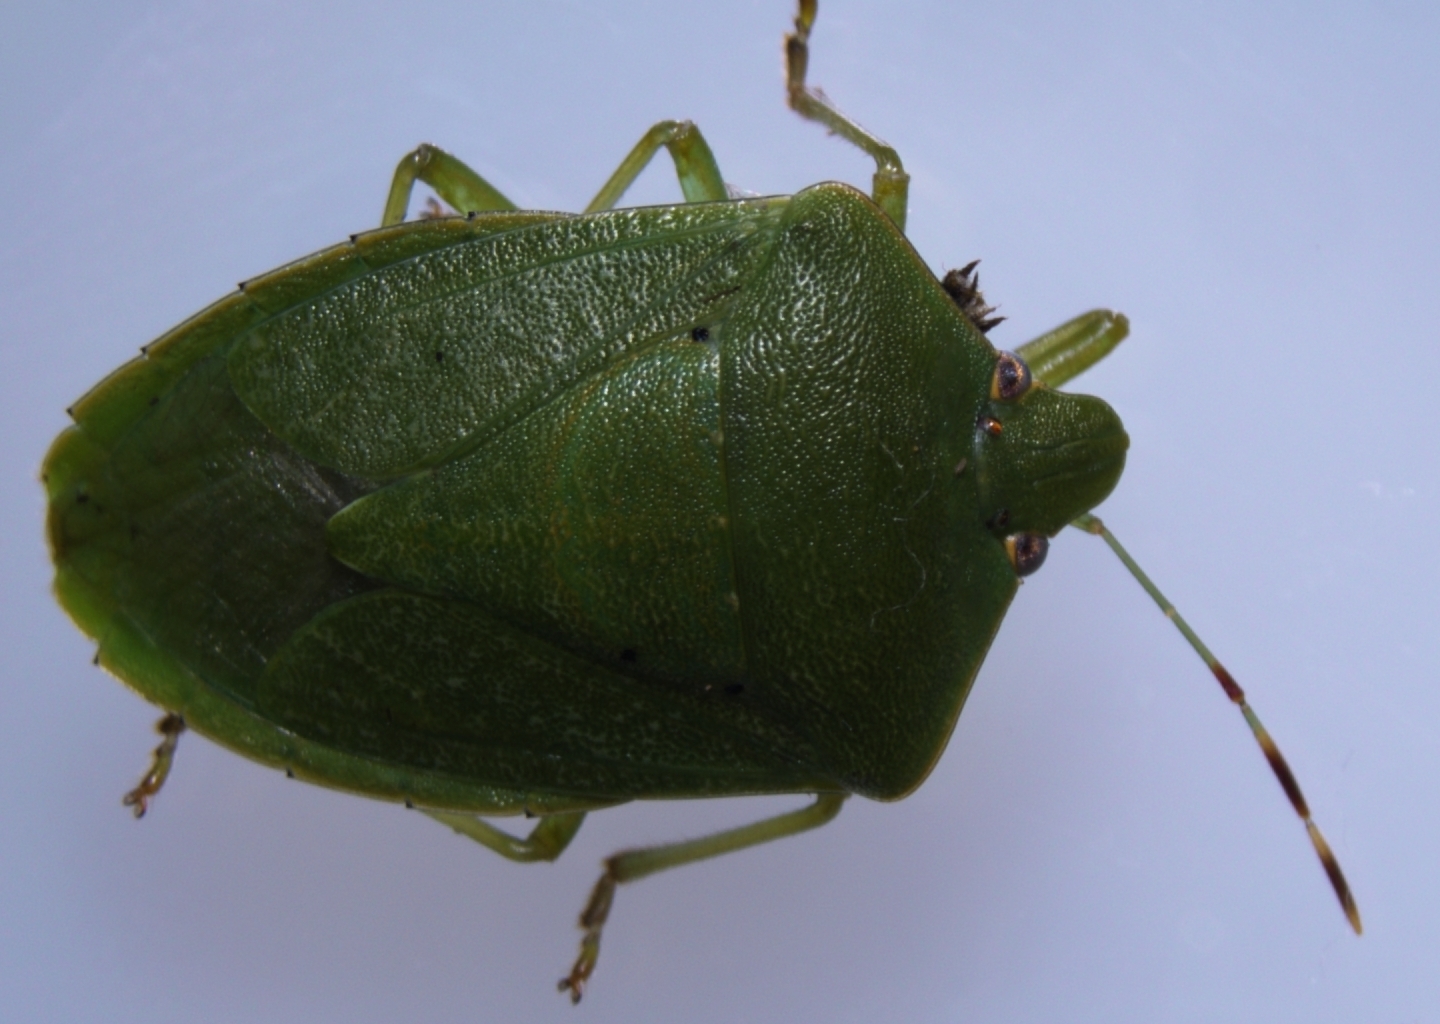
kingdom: Animalia
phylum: Arthropoda
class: Insecta
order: Hemiptera
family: Pentatomidae
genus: Nezara
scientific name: Nezara viridula
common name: Southern green stink bug
